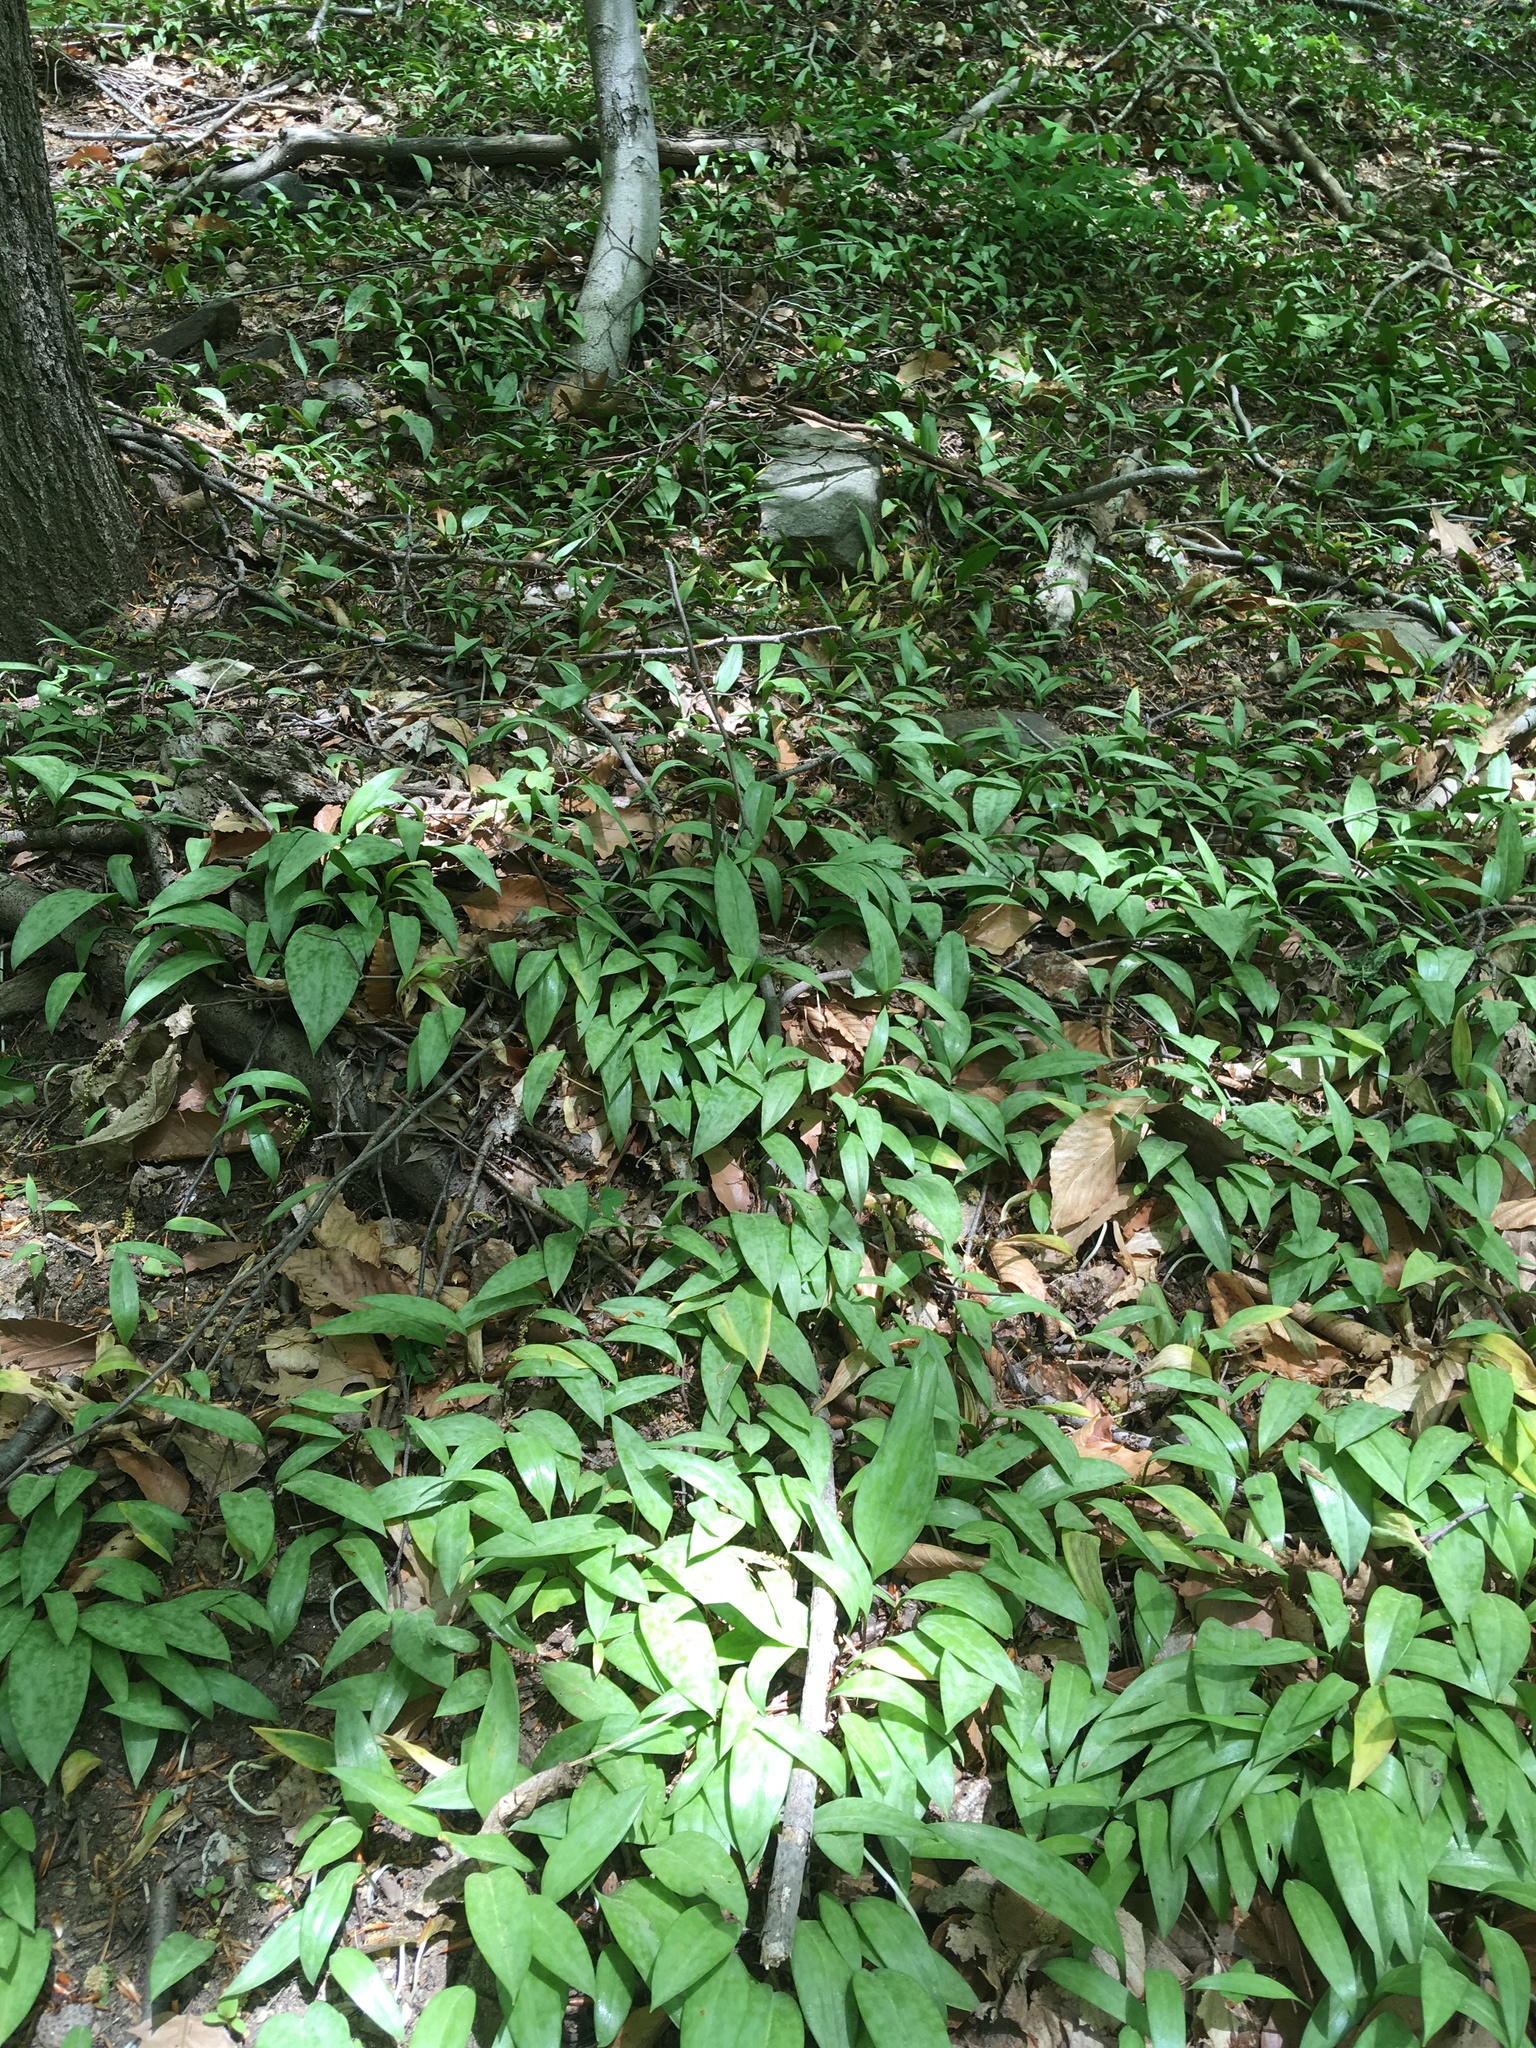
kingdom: Plantae
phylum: Tracheophyta
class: Liliopsida
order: Liliales
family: Liliaceae
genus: Erythronium
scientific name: Erythronium americanum
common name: Yellow adder's-tongue
